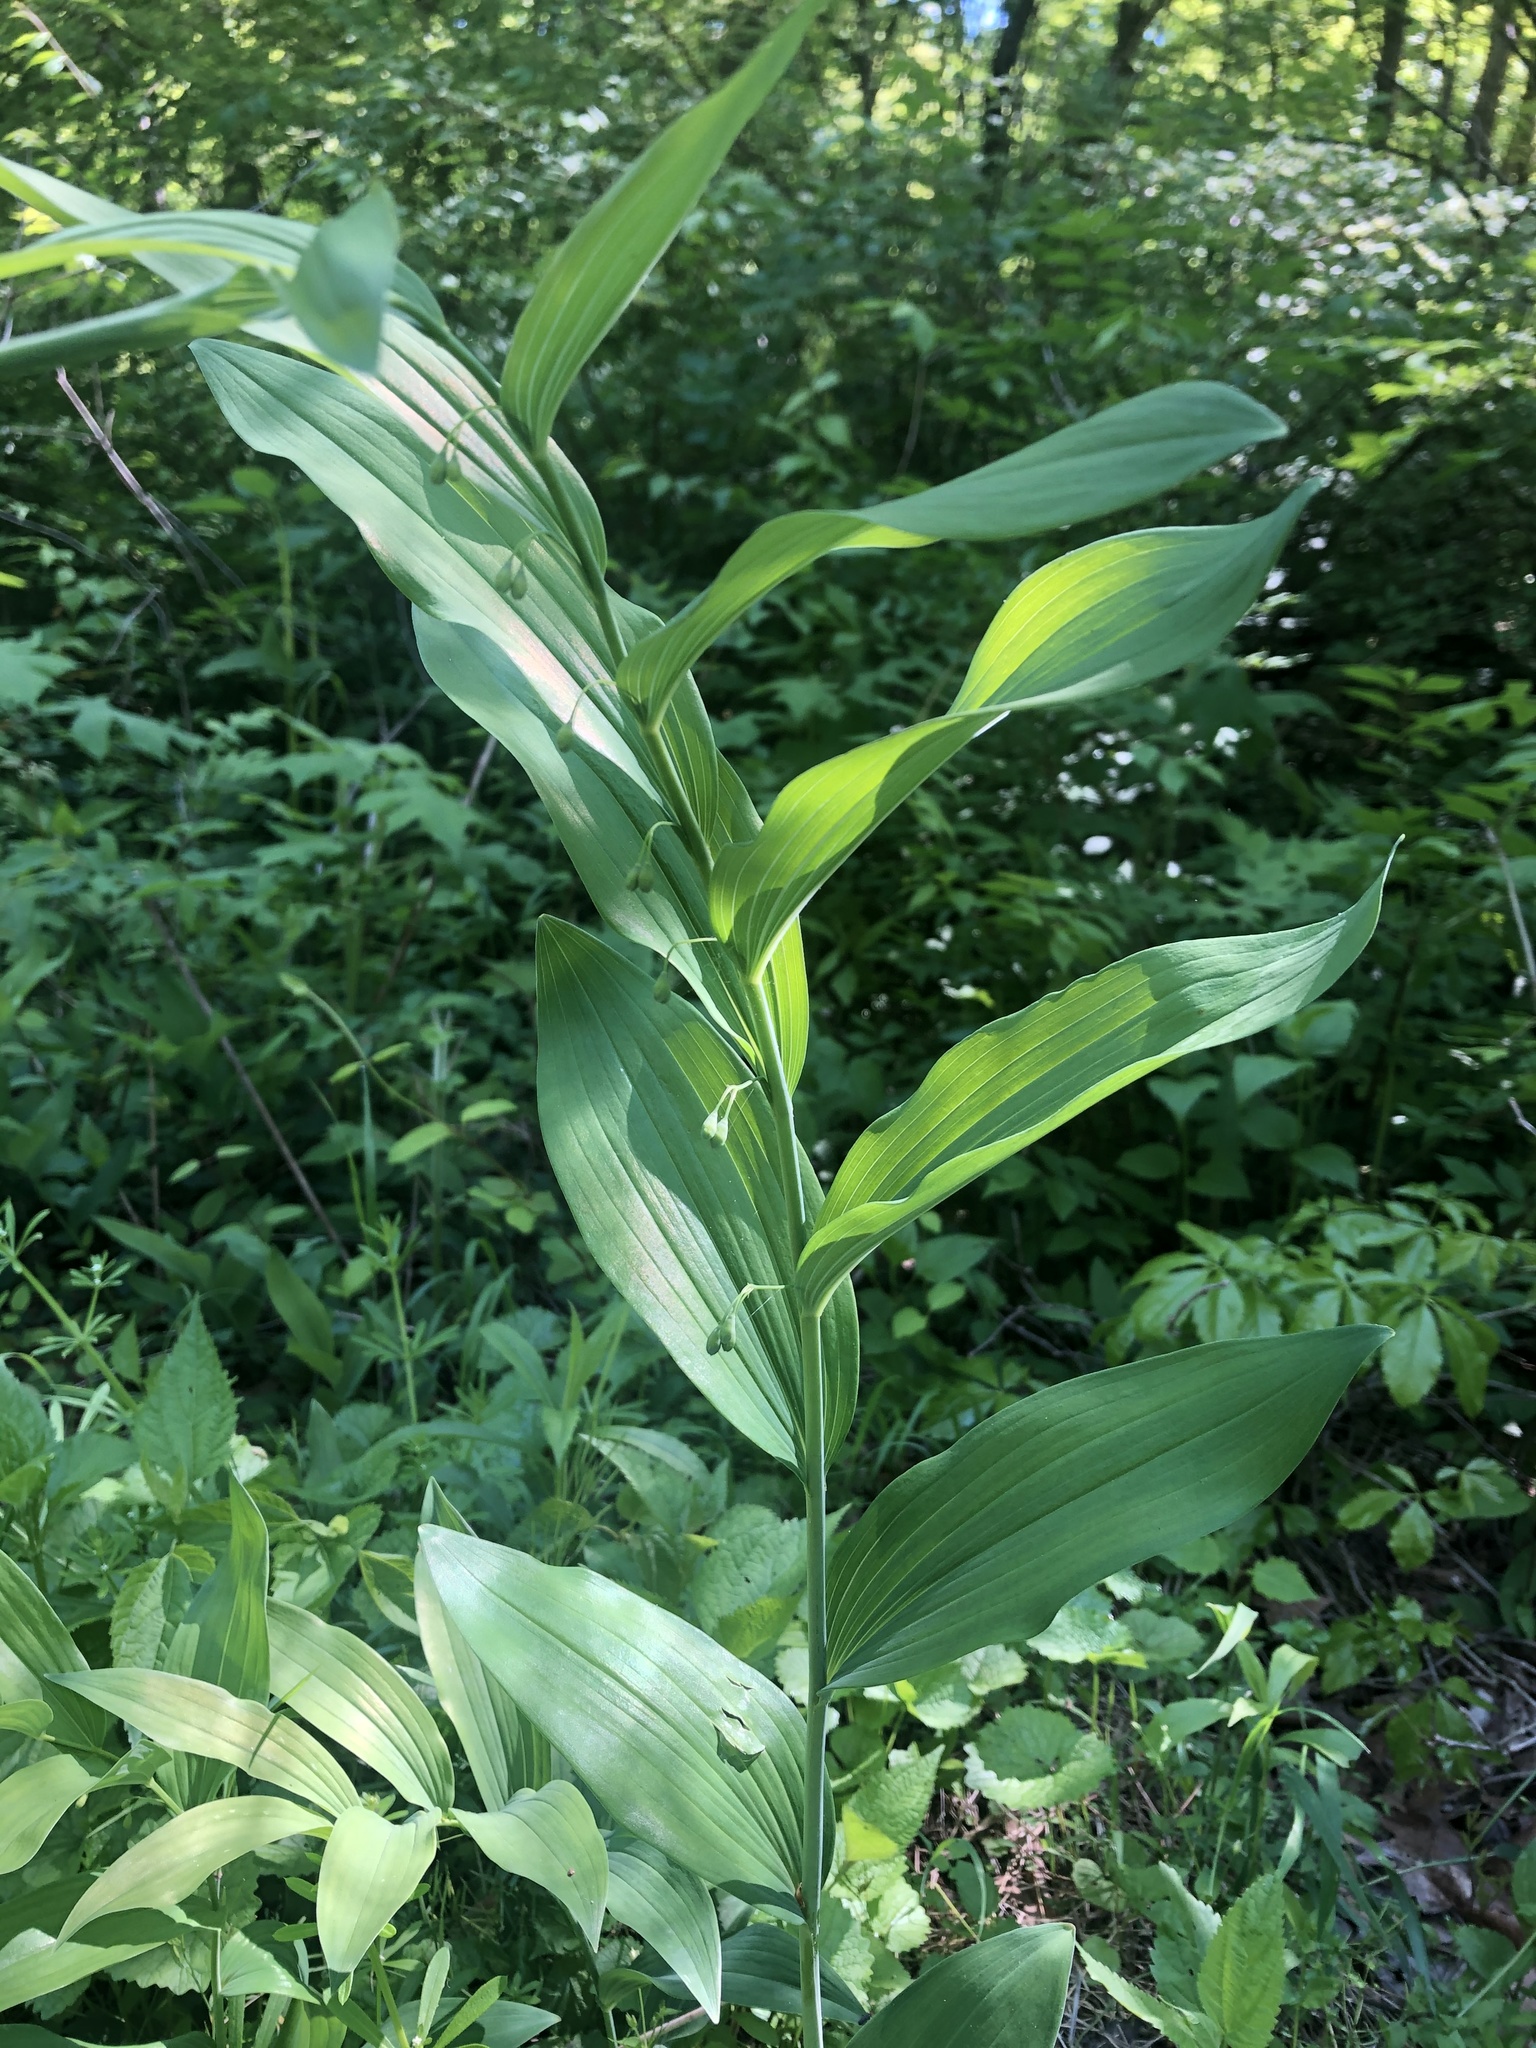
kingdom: Plantae
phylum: Tracheophyta
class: Liliopsida
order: Asparagales
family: Asparagaceae
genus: Polygonatum
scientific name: Polygonatum biflorum
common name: American solomon's-seal
